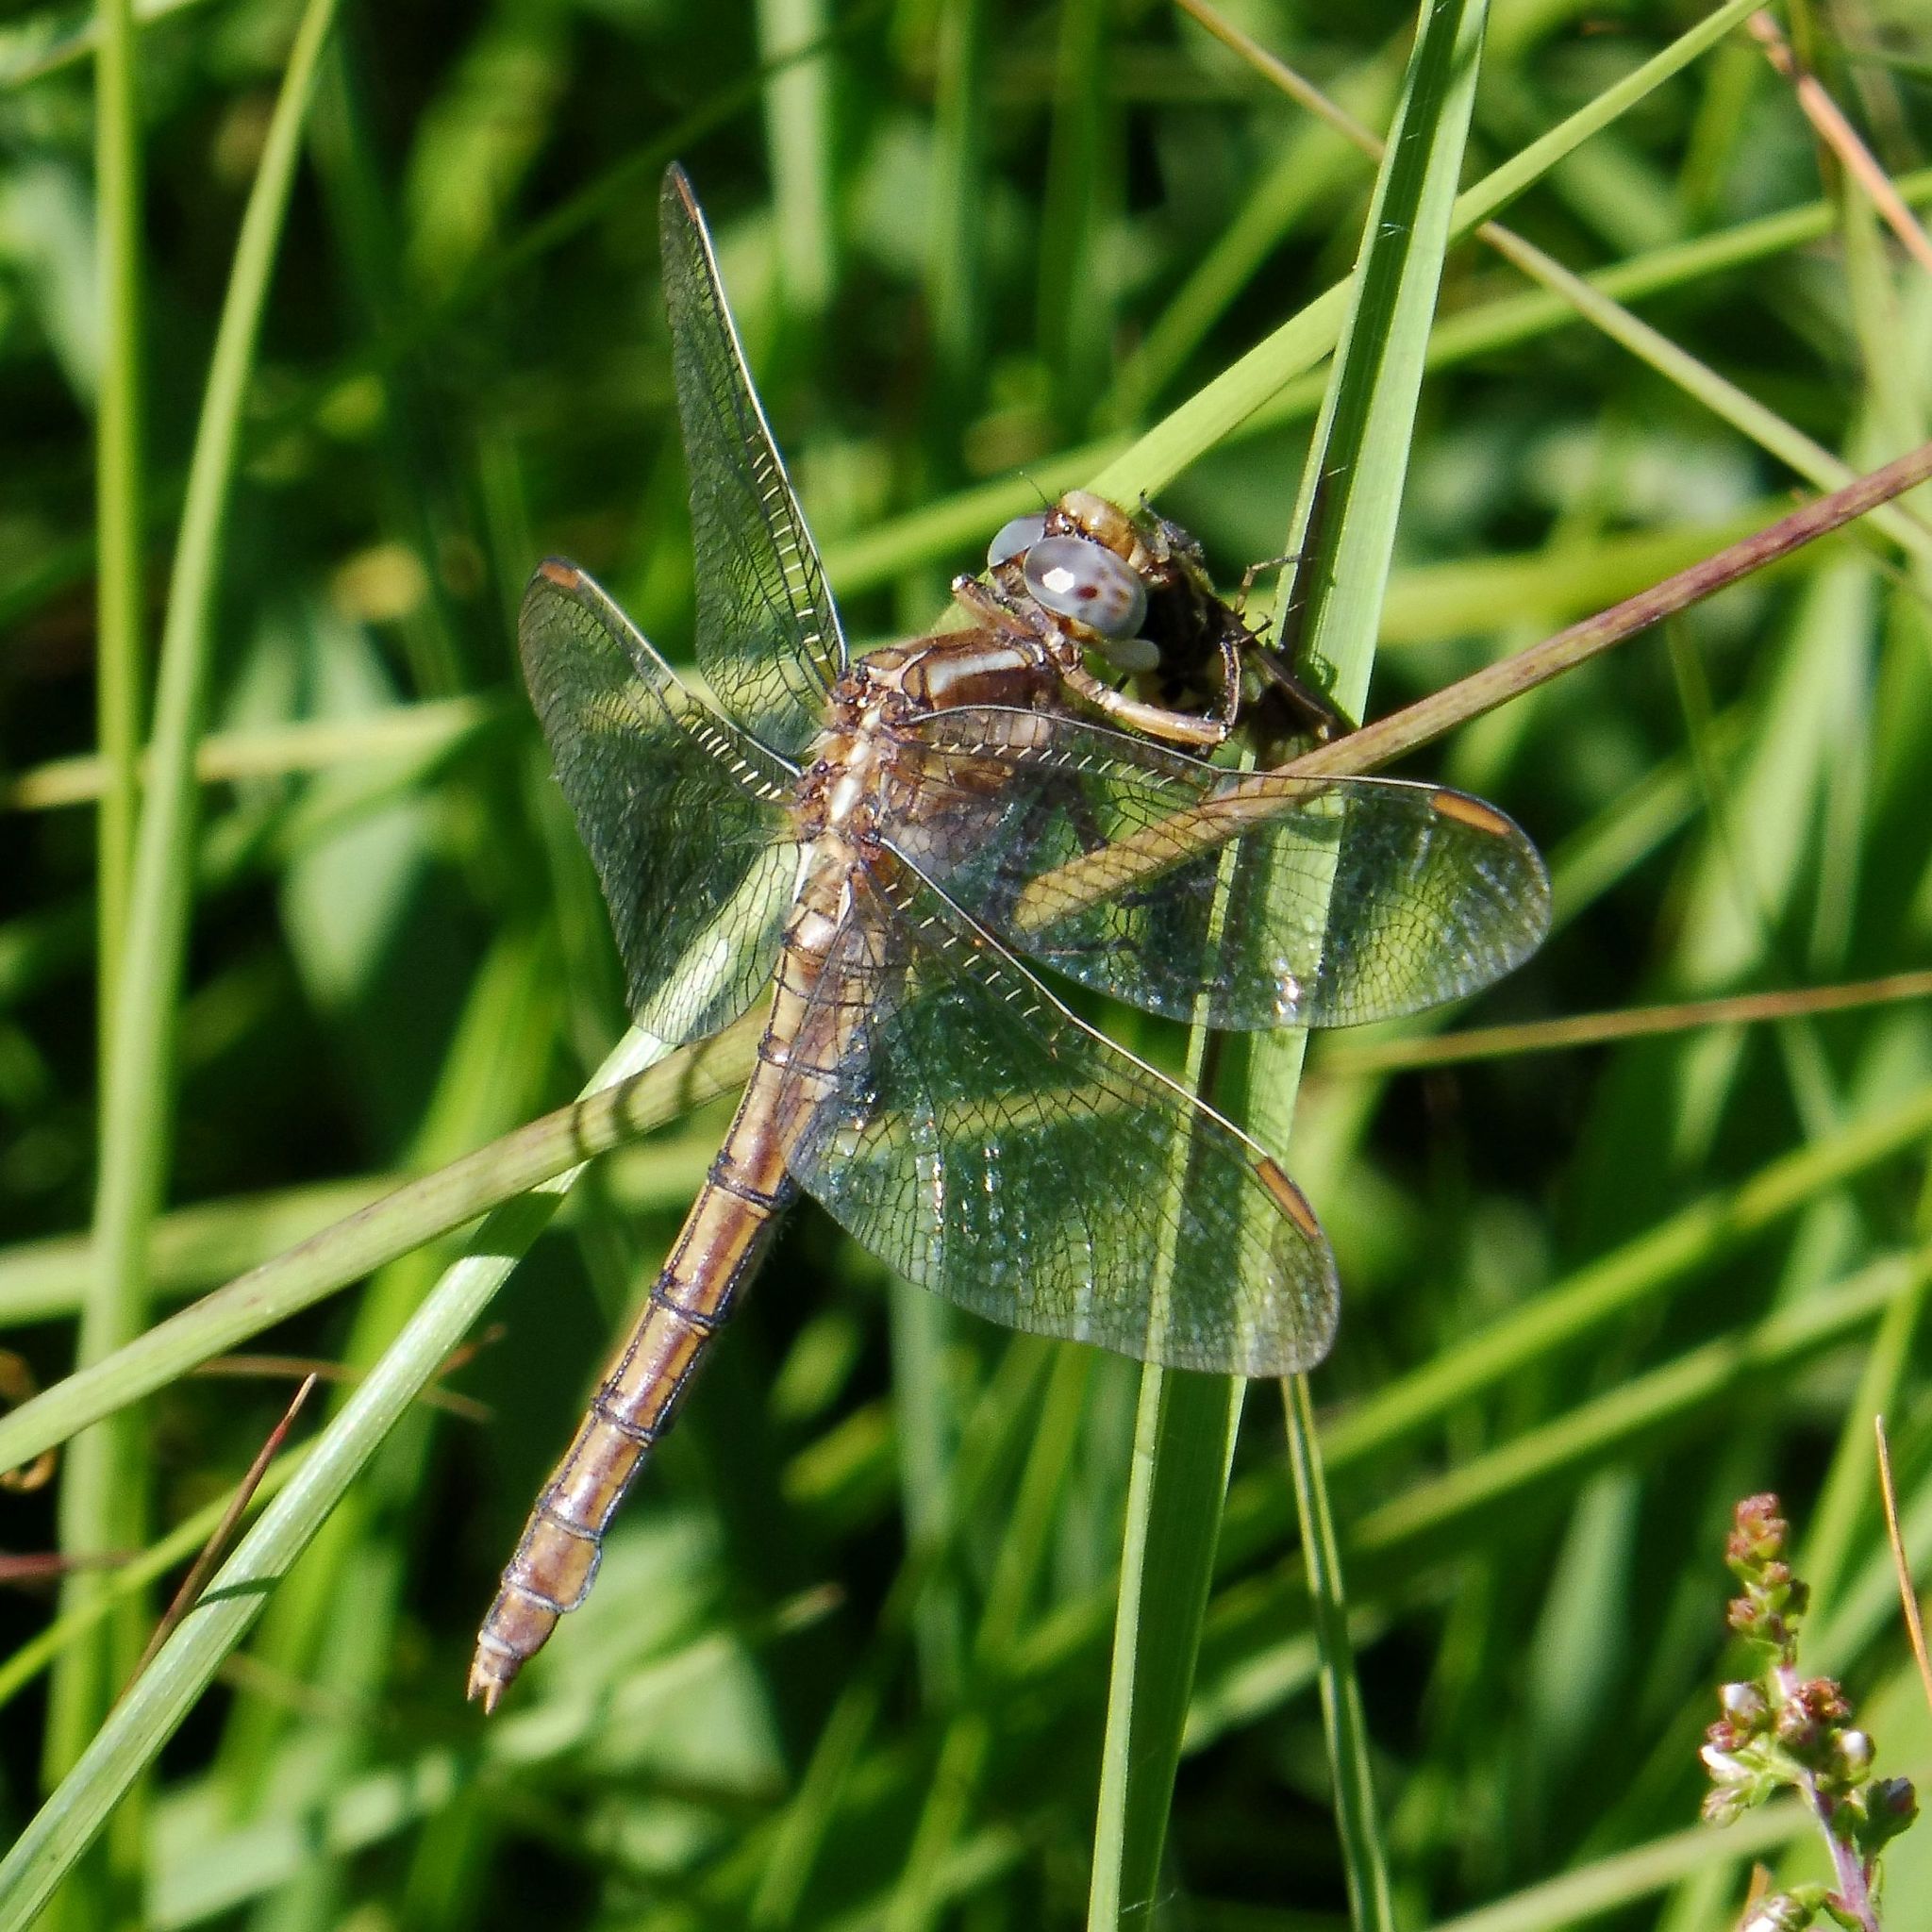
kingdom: Animalia
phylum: Arthropoda
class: Insecta
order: Odonata
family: Libellulidae
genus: Orthetrum
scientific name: Orthetrum coerulescens
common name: Keeled skimmer
